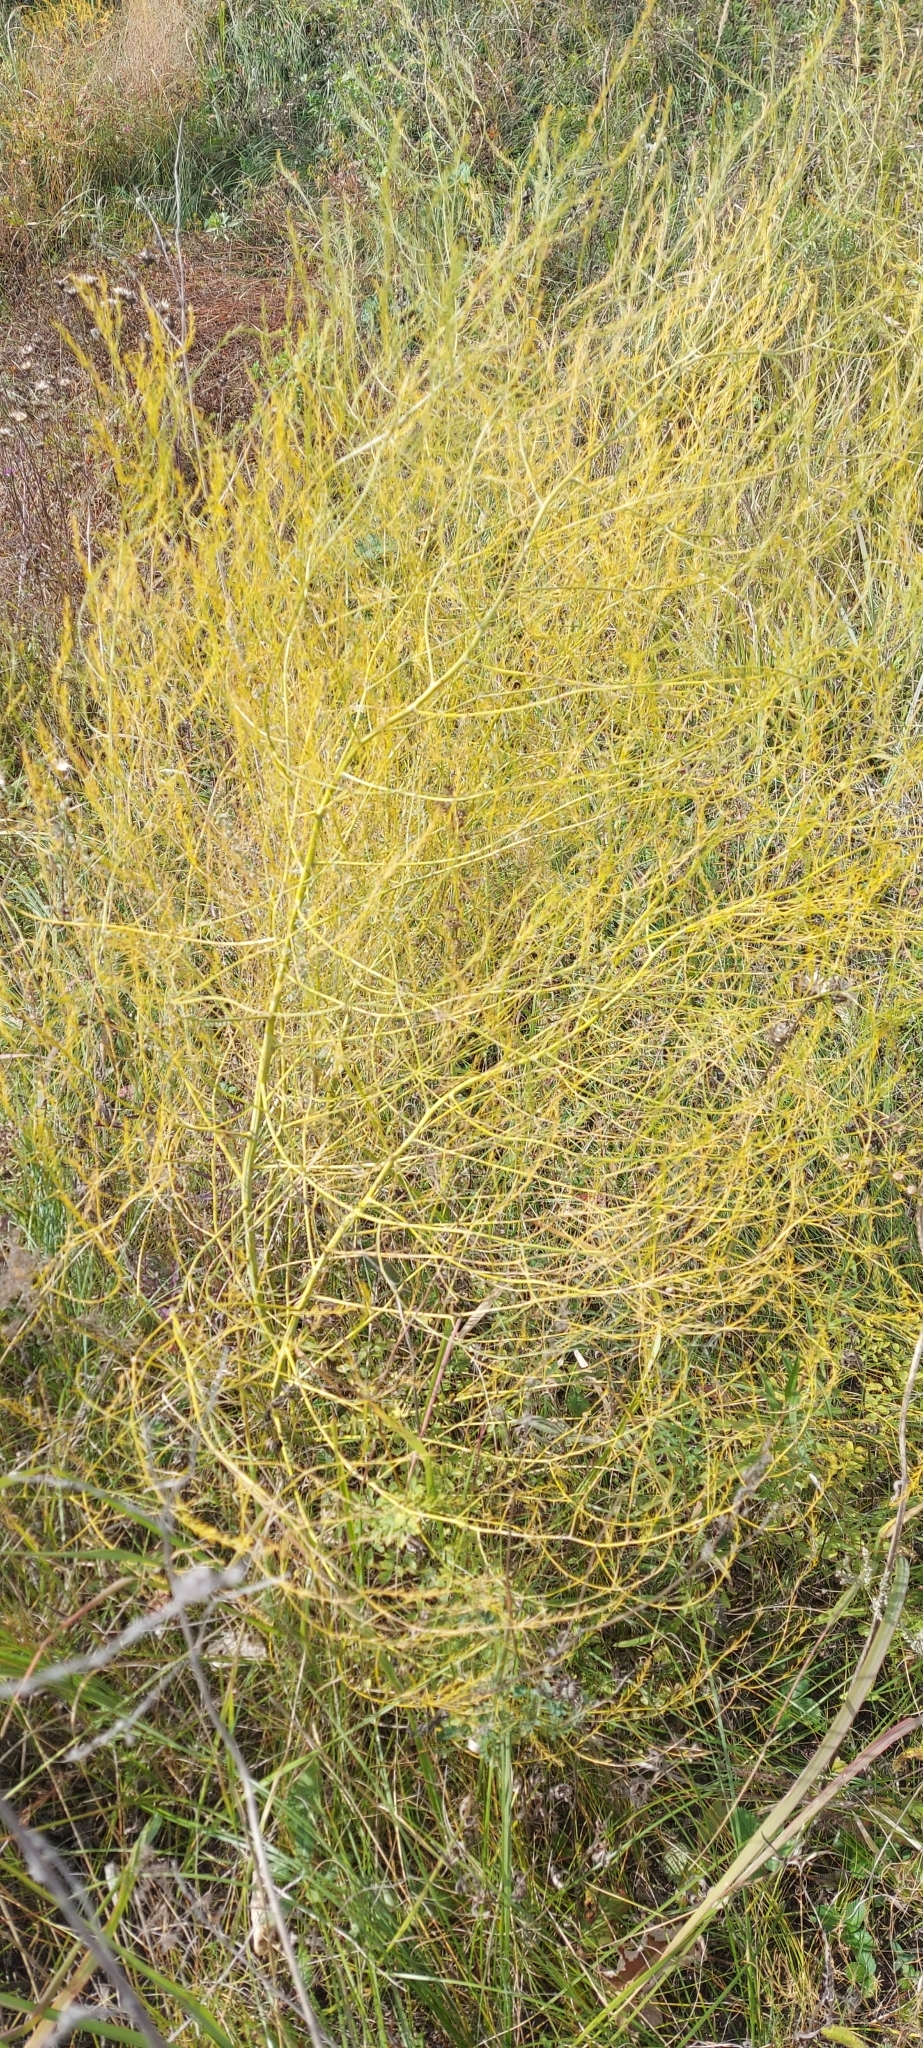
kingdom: Plantae
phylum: Tracheophyta
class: Liliopsida
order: Asparagales
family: Asparagaceae
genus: Asparagus
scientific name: Asparagus officinalis
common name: Garden asparagus
